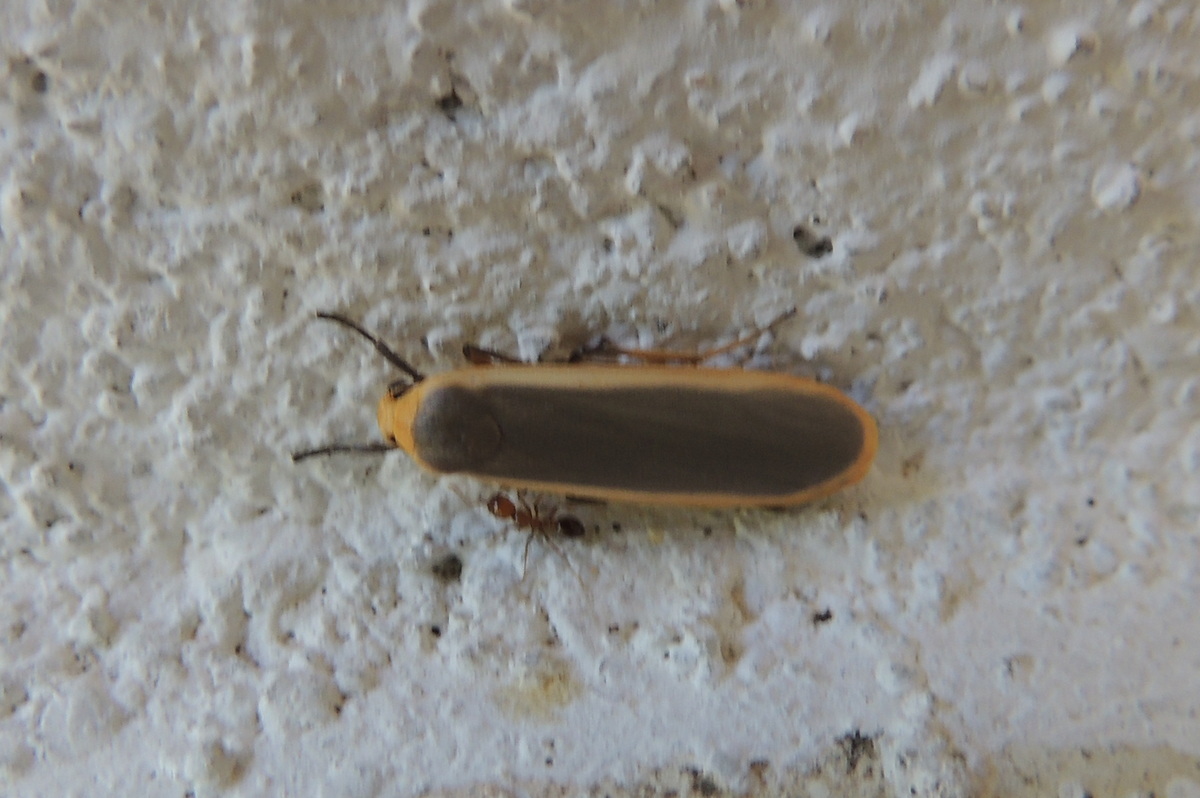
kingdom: Animalia
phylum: Arthropoda
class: Insecta
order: Lepidoptera
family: Erebidae
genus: Brunia
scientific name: Brunia antica
